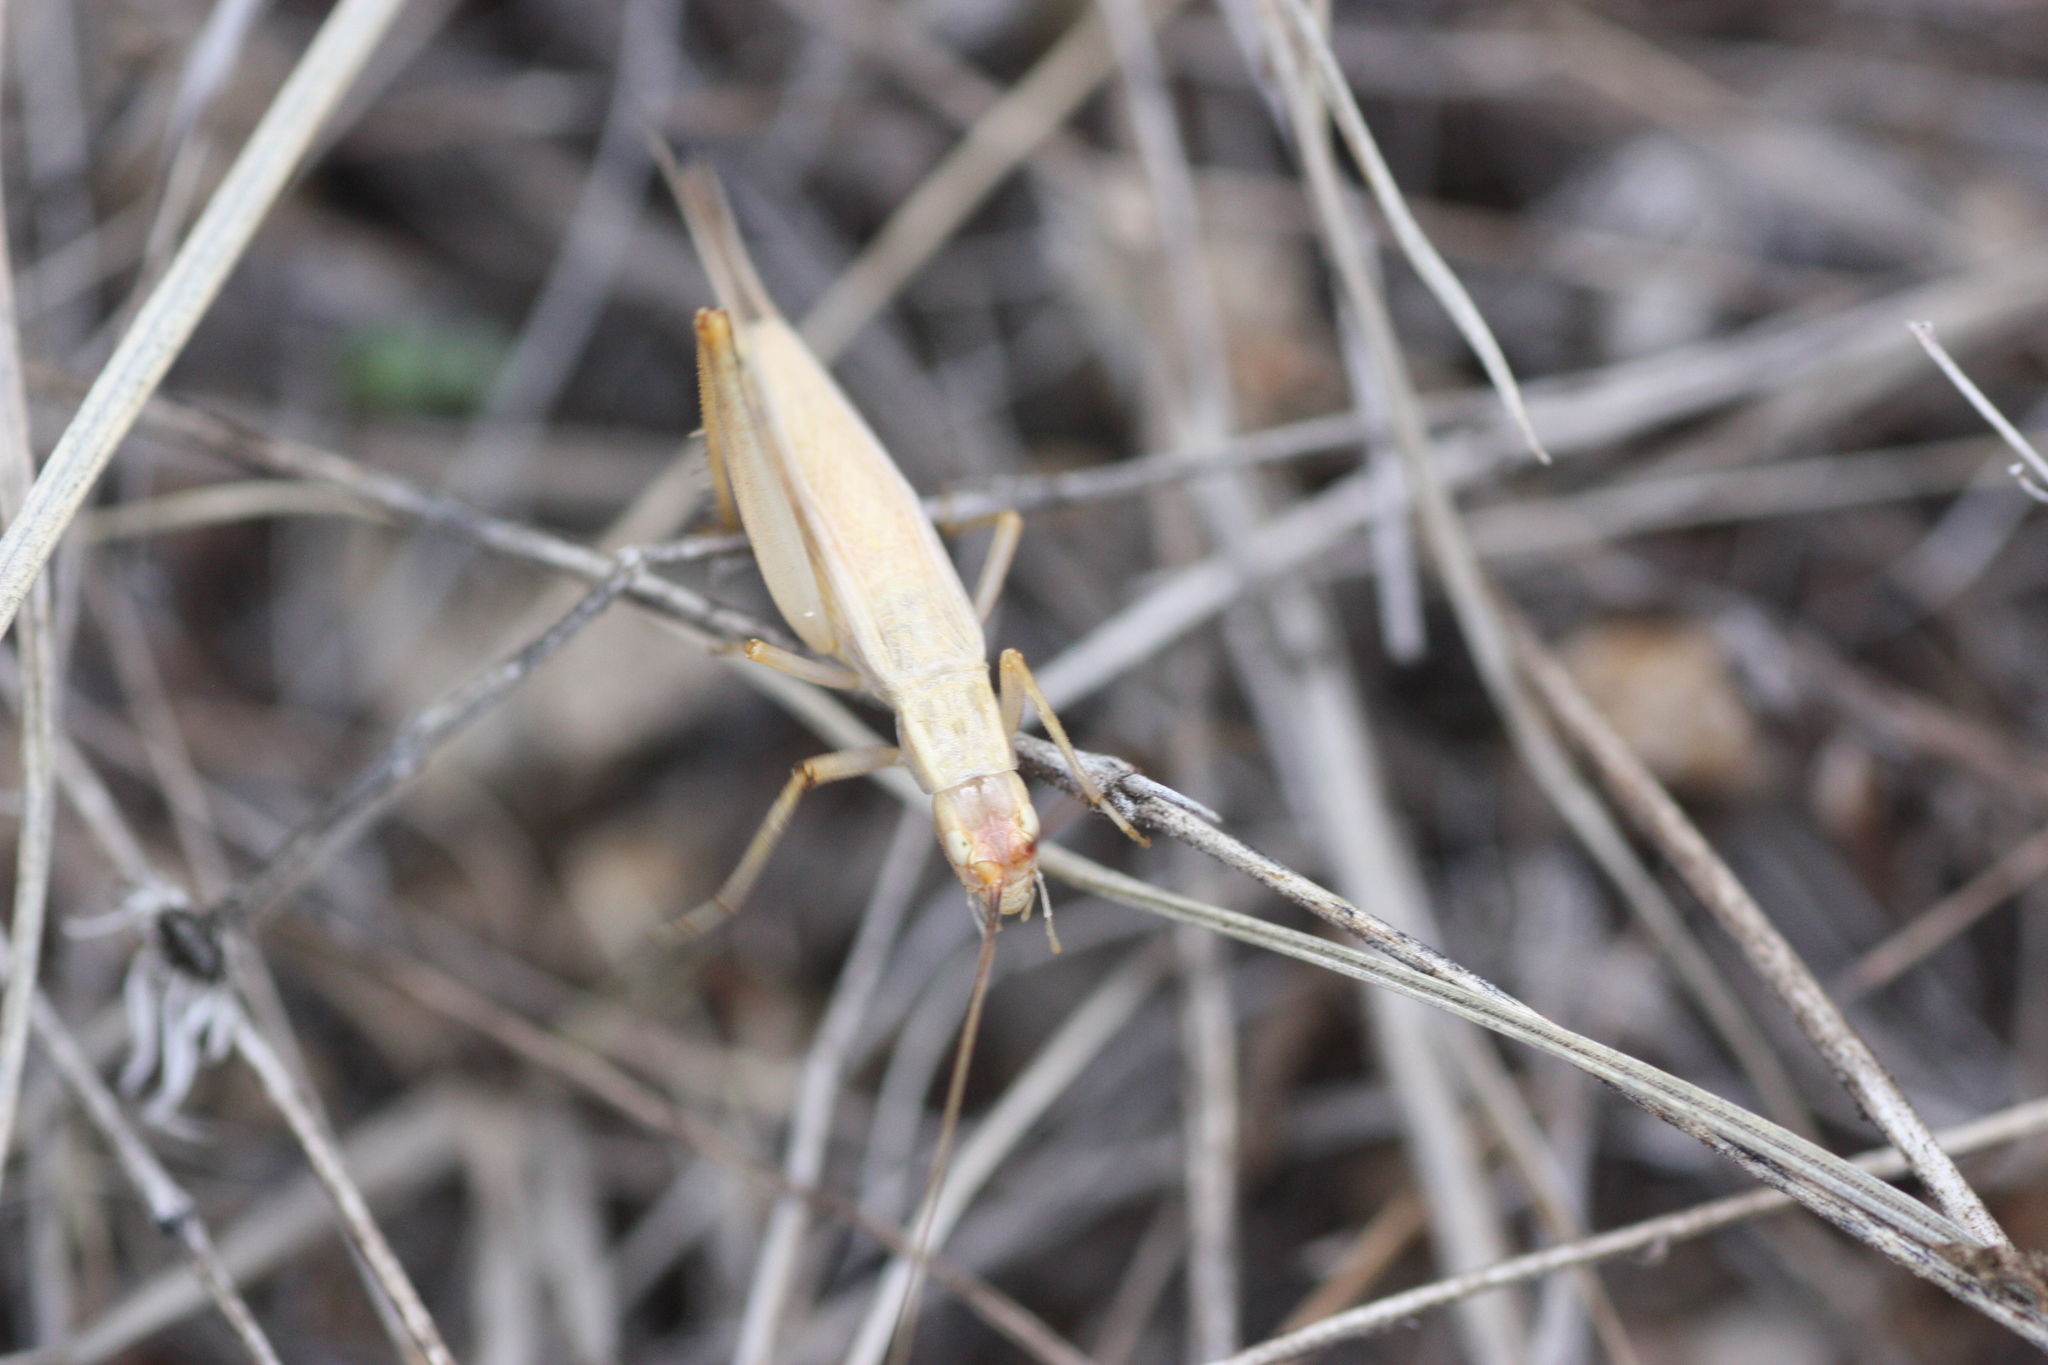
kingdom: Animalia
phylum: Arthropoda
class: Insecta
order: Orthoptera
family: Gryllidae
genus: Oecanthus
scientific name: Oecanthus
